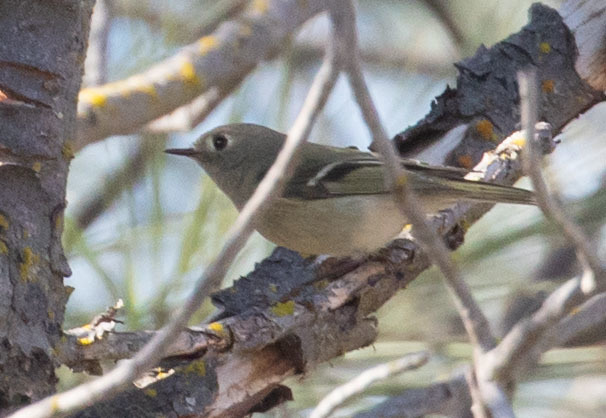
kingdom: Animalia
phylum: Chordata
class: Aves
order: Passeriformes
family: Regulidae
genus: Regulus
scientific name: Regulus calendula
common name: Ruby-crowned kinglet
